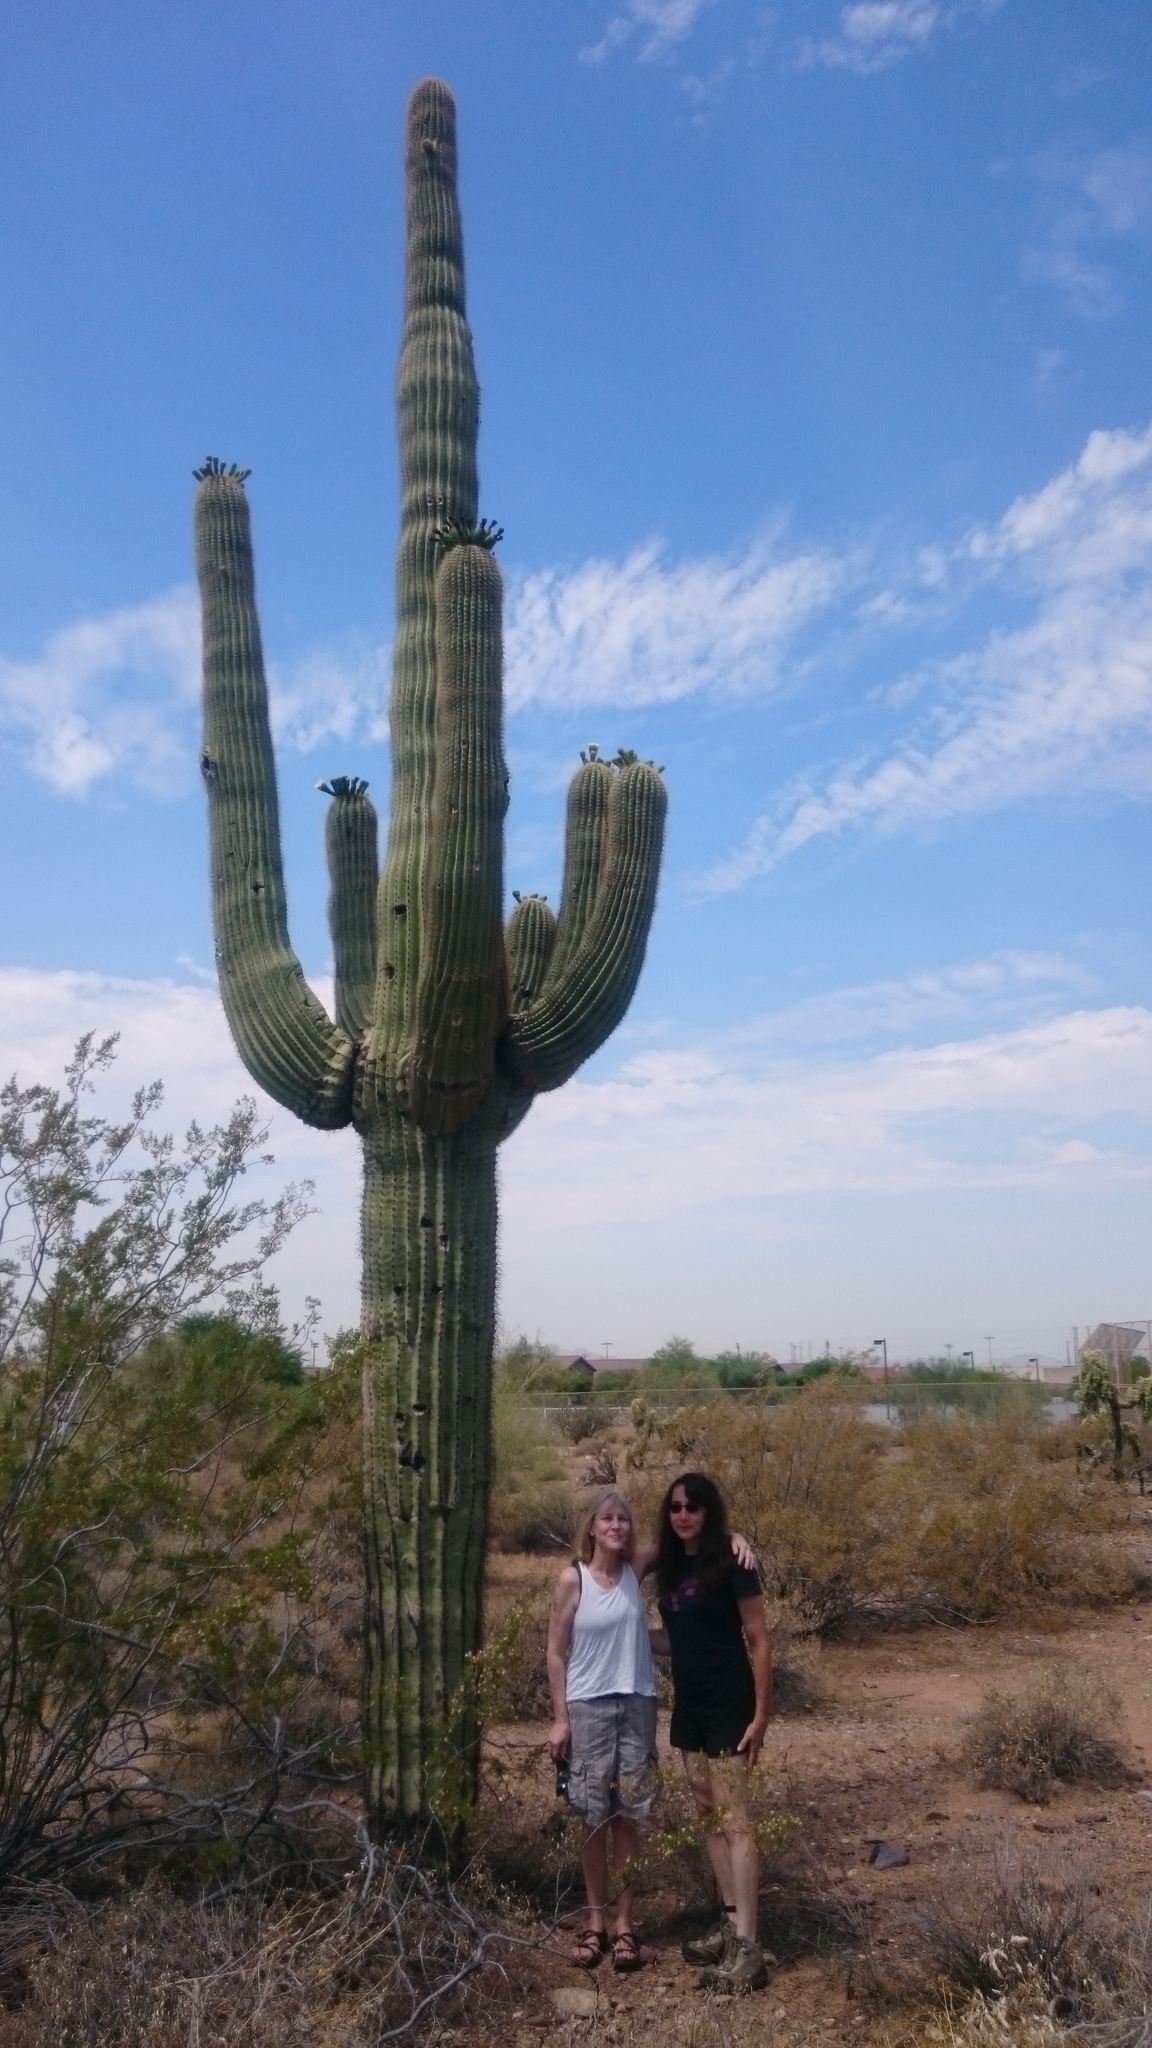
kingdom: Plantae
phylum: Tracheophyta
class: Magnoliopsida
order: Caryophyllales
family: Cactaceae
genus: Carnegiea
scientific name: Carnegiea gigantea
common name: Saguaro
